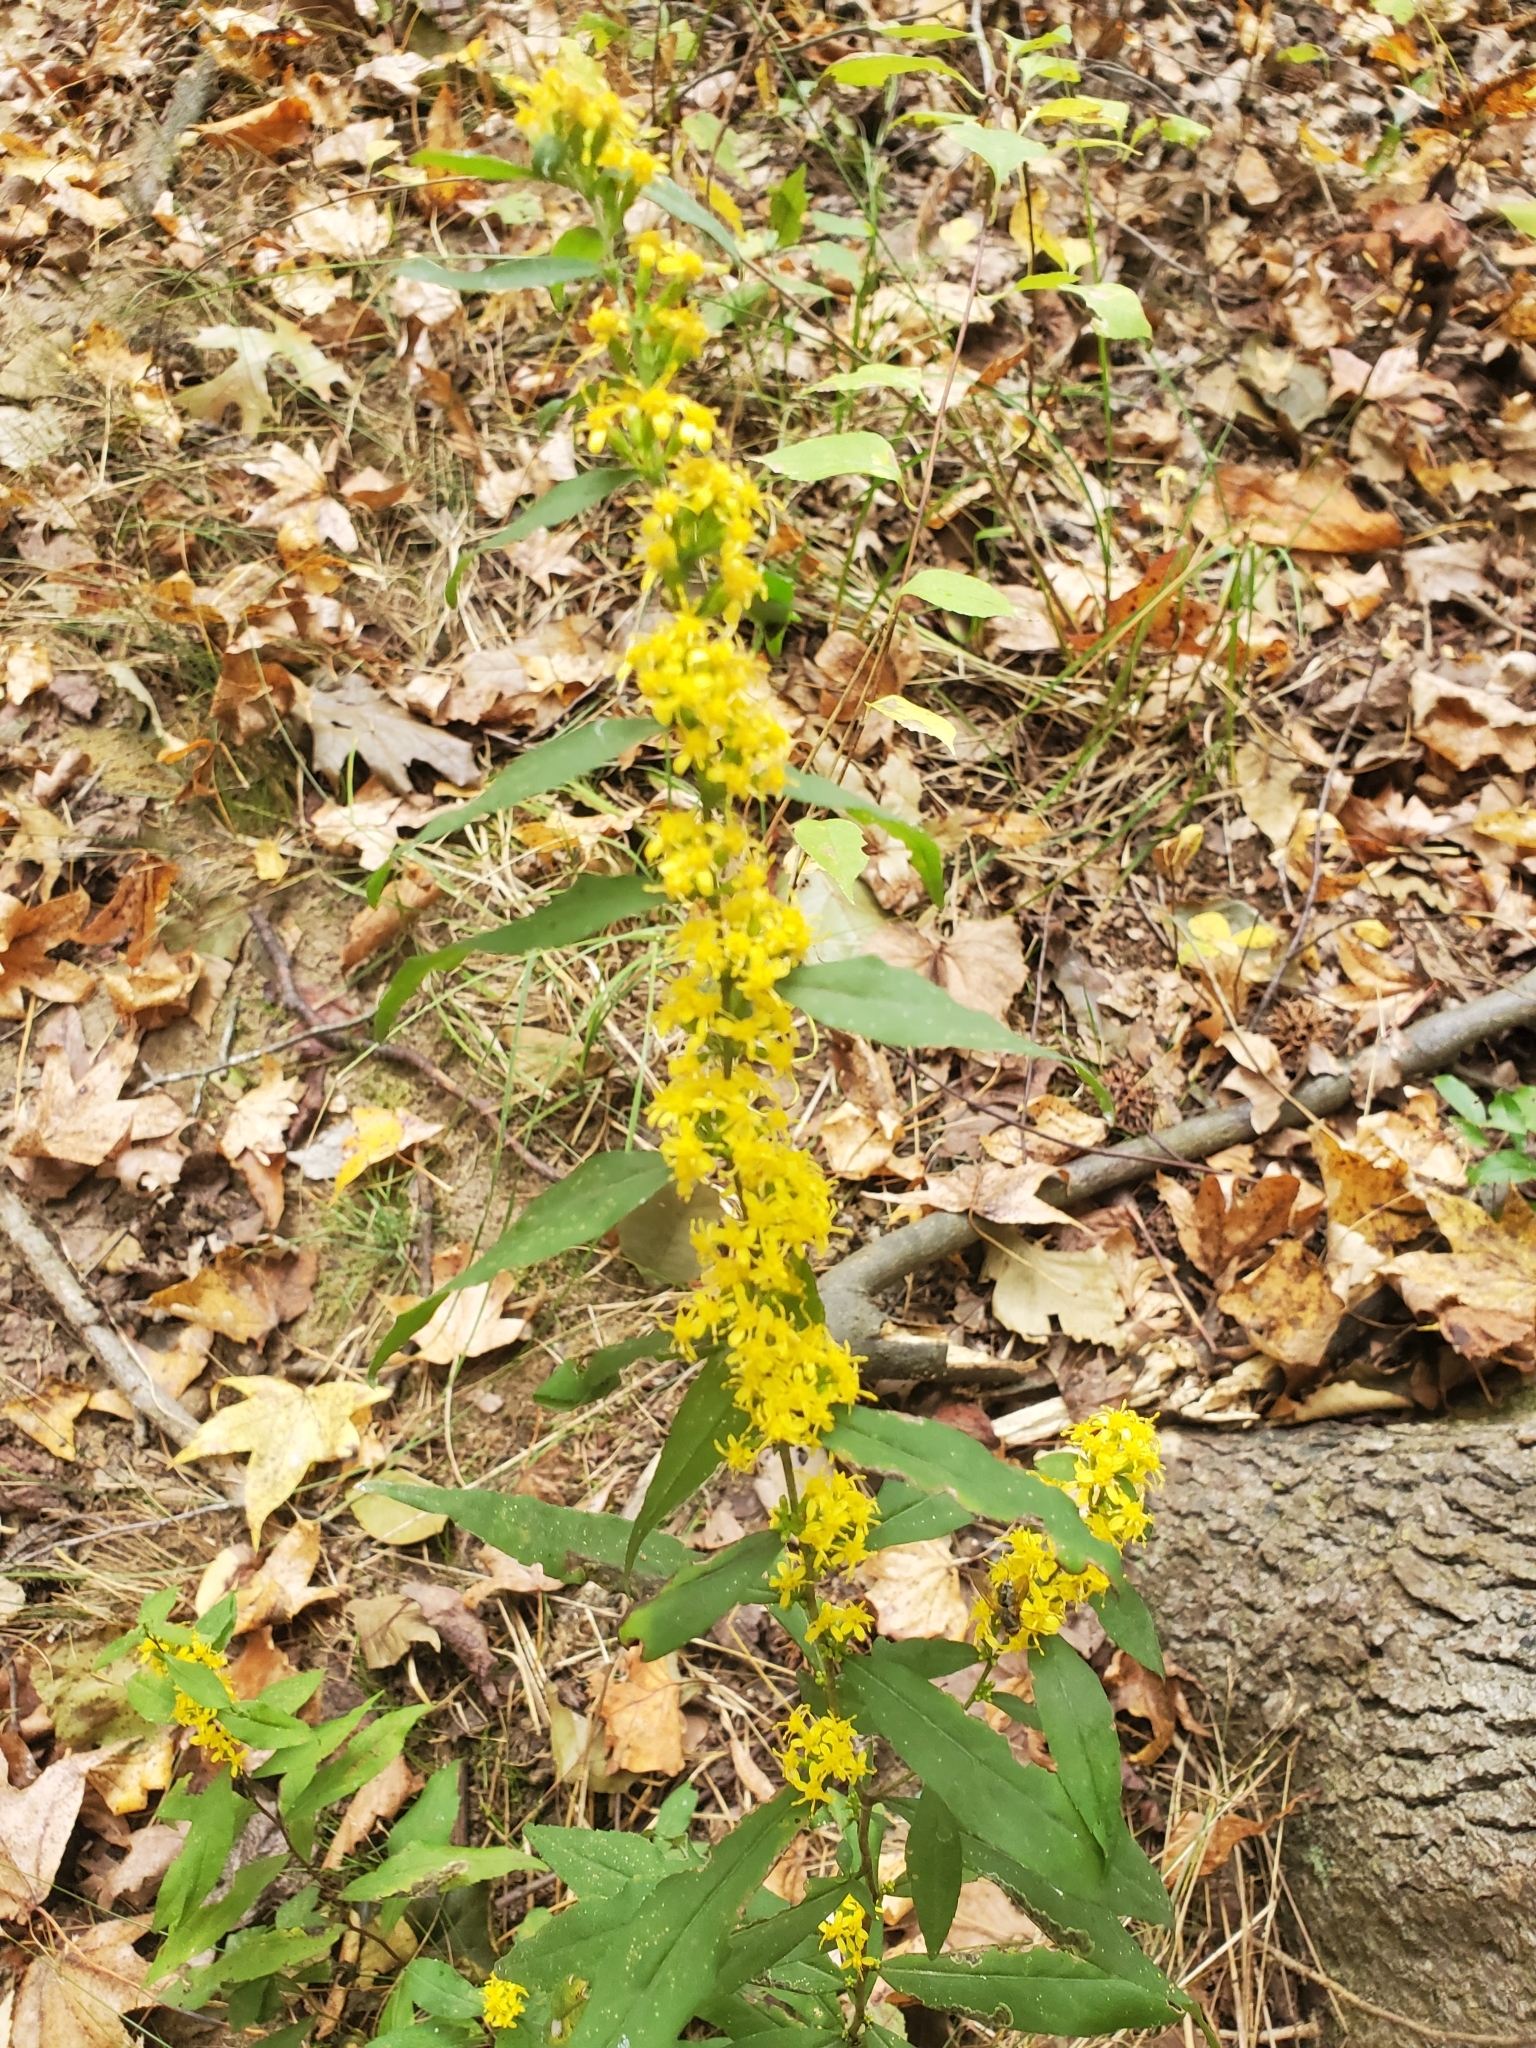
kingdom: Plantae
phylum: Tracheophyta
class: Magnoliopsida
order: Asterales
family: Asteraceae
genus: Solidago
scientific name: Solidago caesia
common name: Woodland goldenrod
